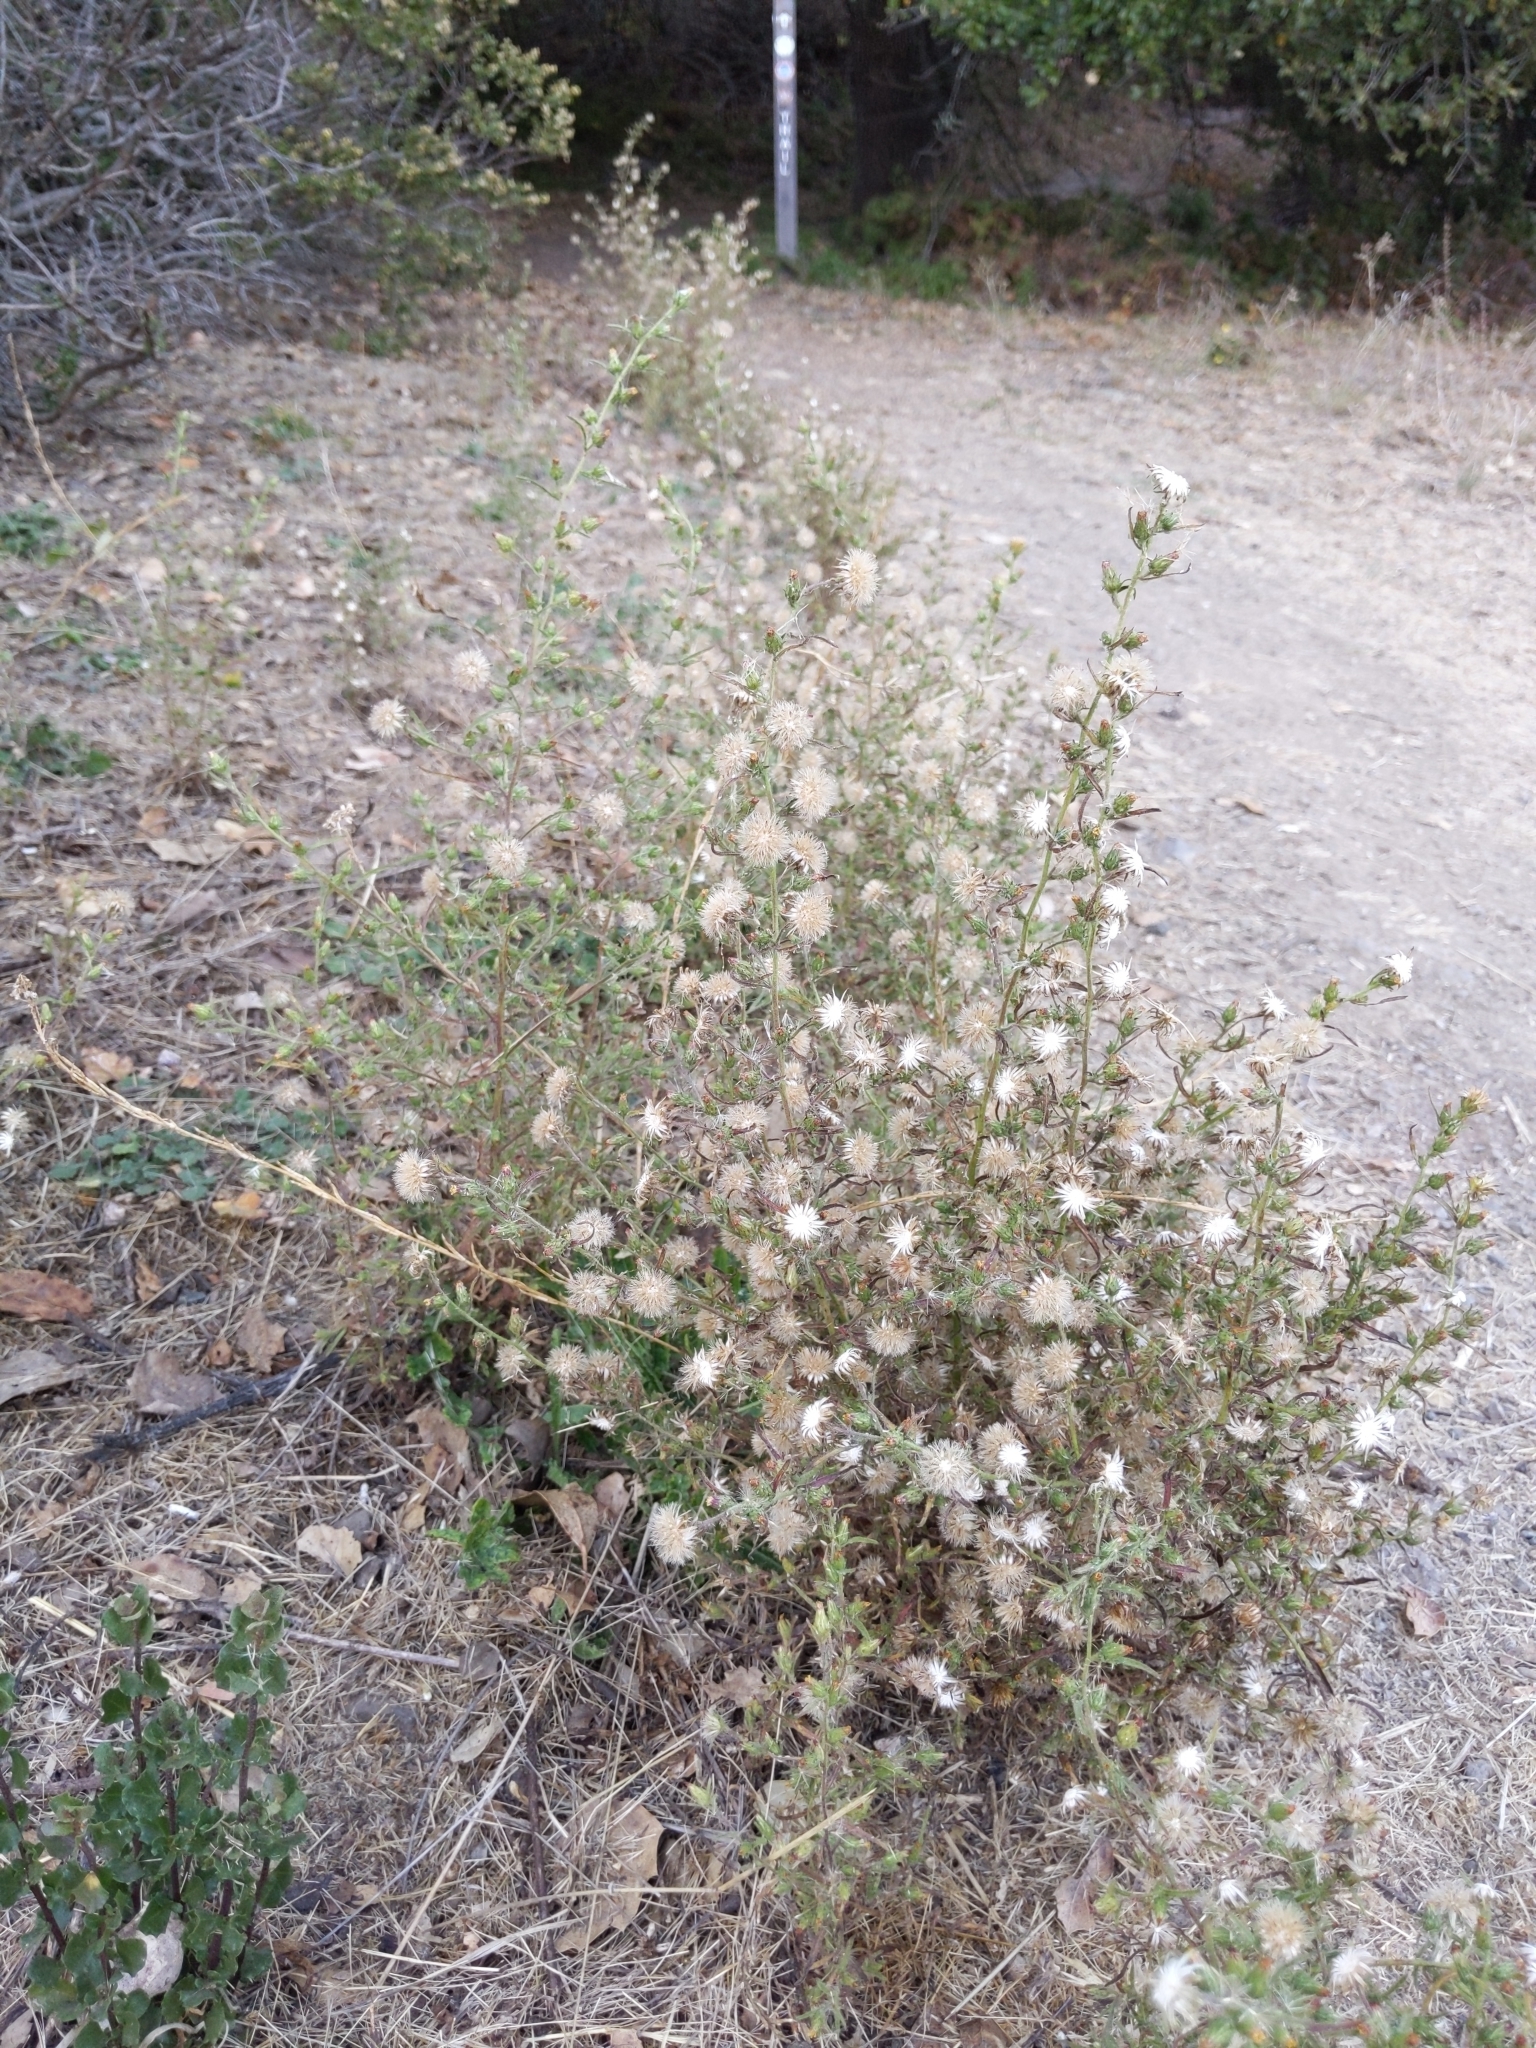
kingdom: Plantae
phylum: Tracheophyta
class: Magnoliopsida
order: Asterales
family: Asteraceae
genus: Dittrichia
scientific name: Dittrichia graveolens
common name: Stinking fleabane
